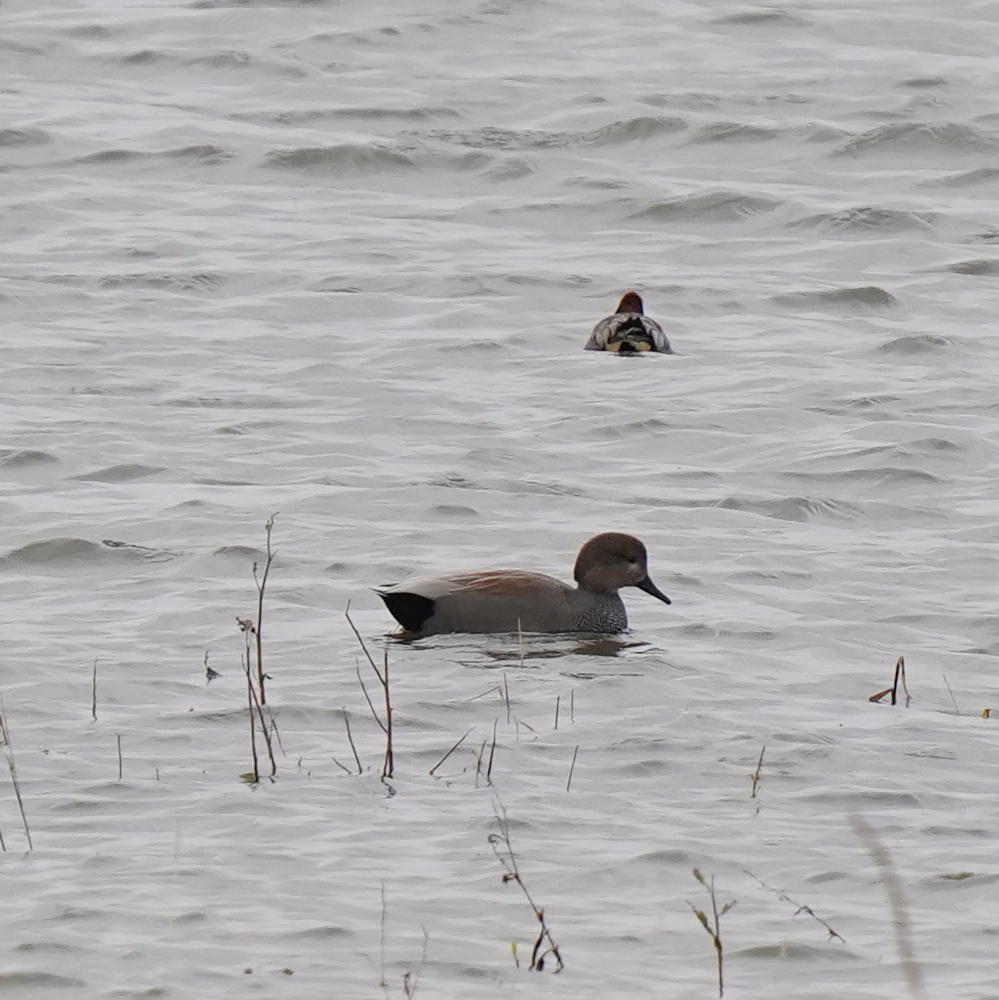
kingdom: Animalia
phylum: Chordata
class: Aves
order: Anseriformes
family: Anatidae
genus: Mareca
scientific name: Mareca strepera
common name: Gadwall
